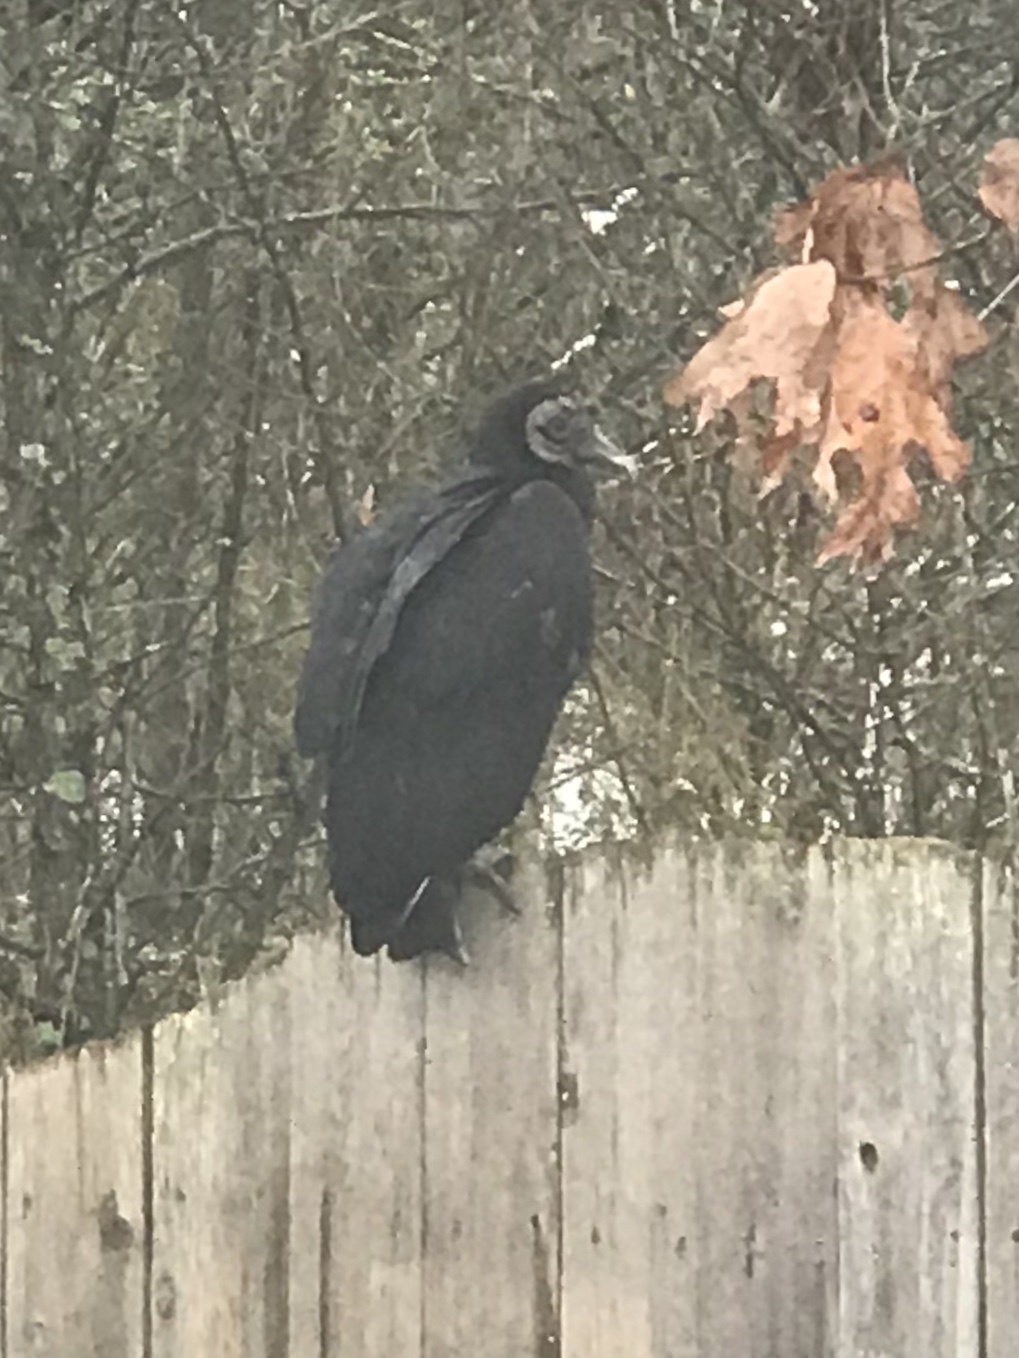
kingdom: Animalia
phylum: Chordata
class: Aves
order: Accipitriformes
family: Cathartidae
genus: Coragyps
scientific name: Coragyps atratus
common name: Black vulture
